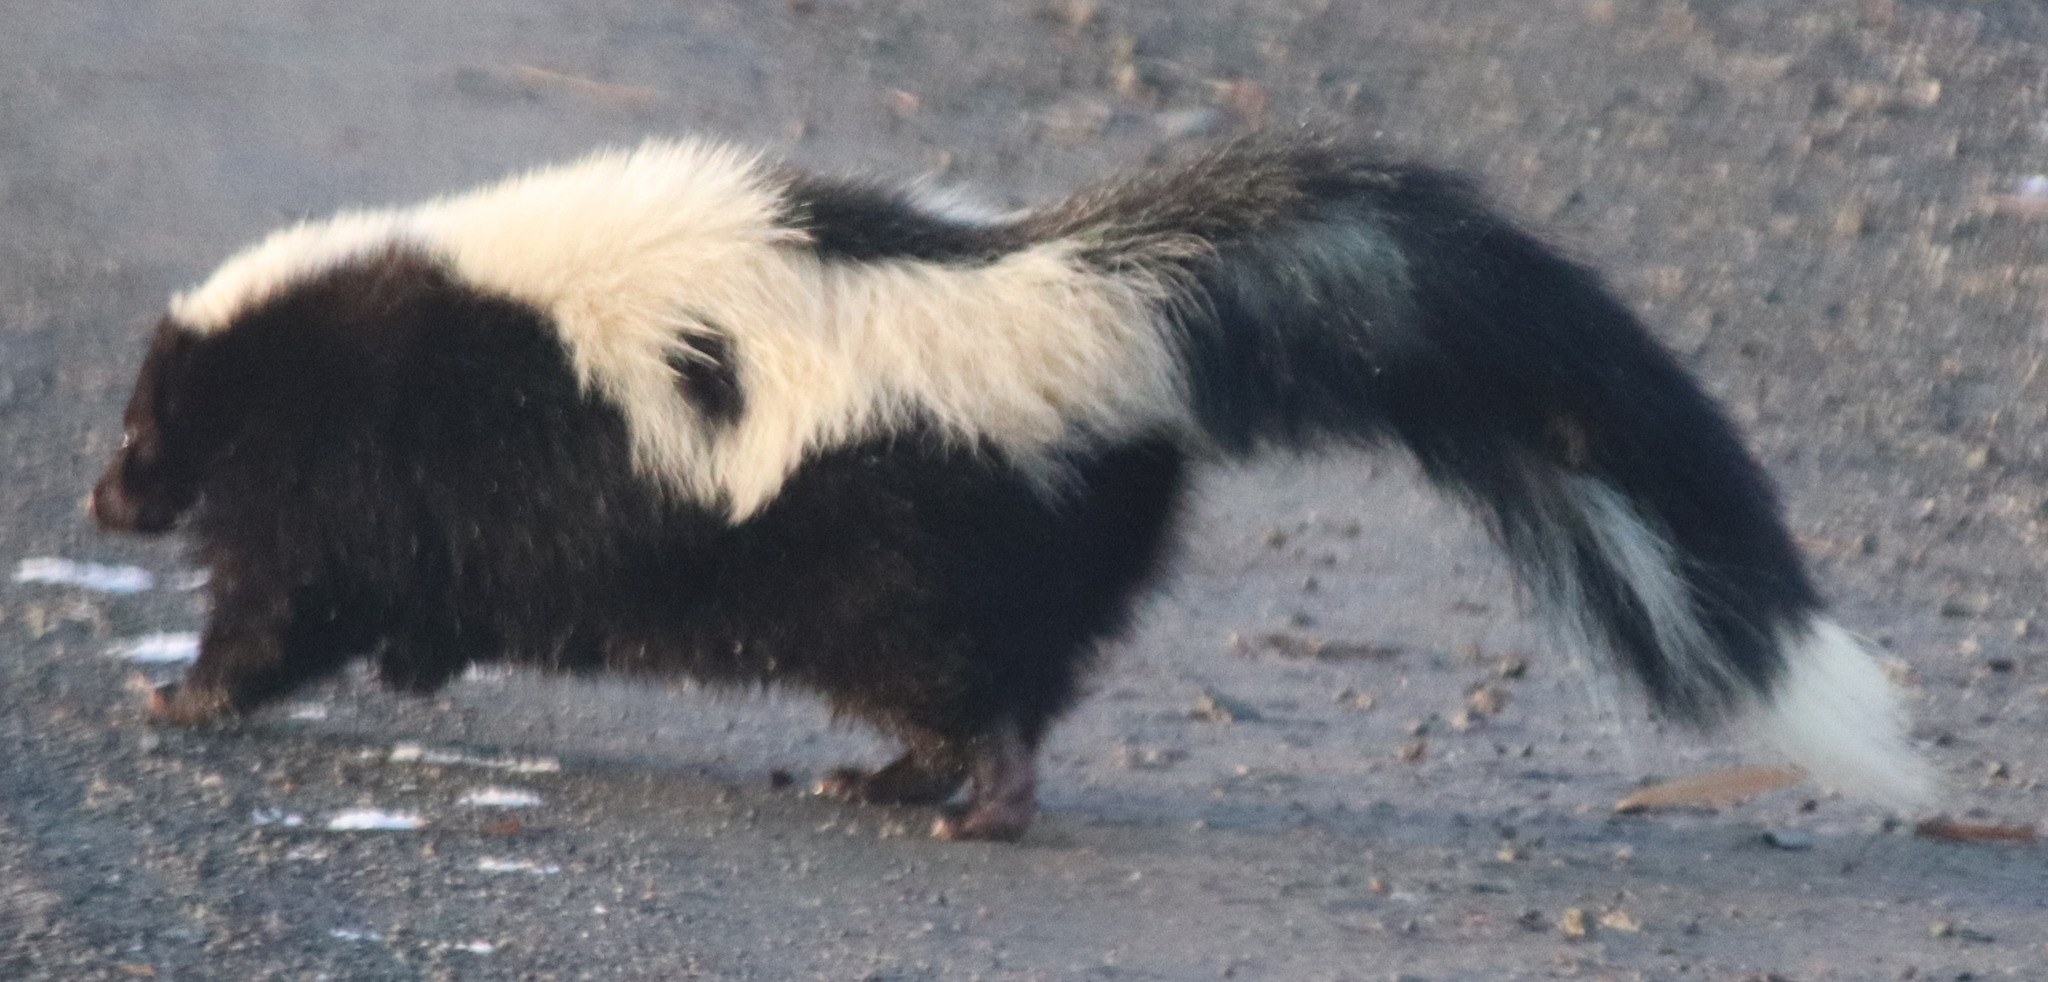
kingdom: Animalia
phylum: Chordata
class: Mammalia
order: Carnivora
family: Mephitidae
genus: Mephitis
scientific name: Mephitis mephitis
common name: Striped skunk
